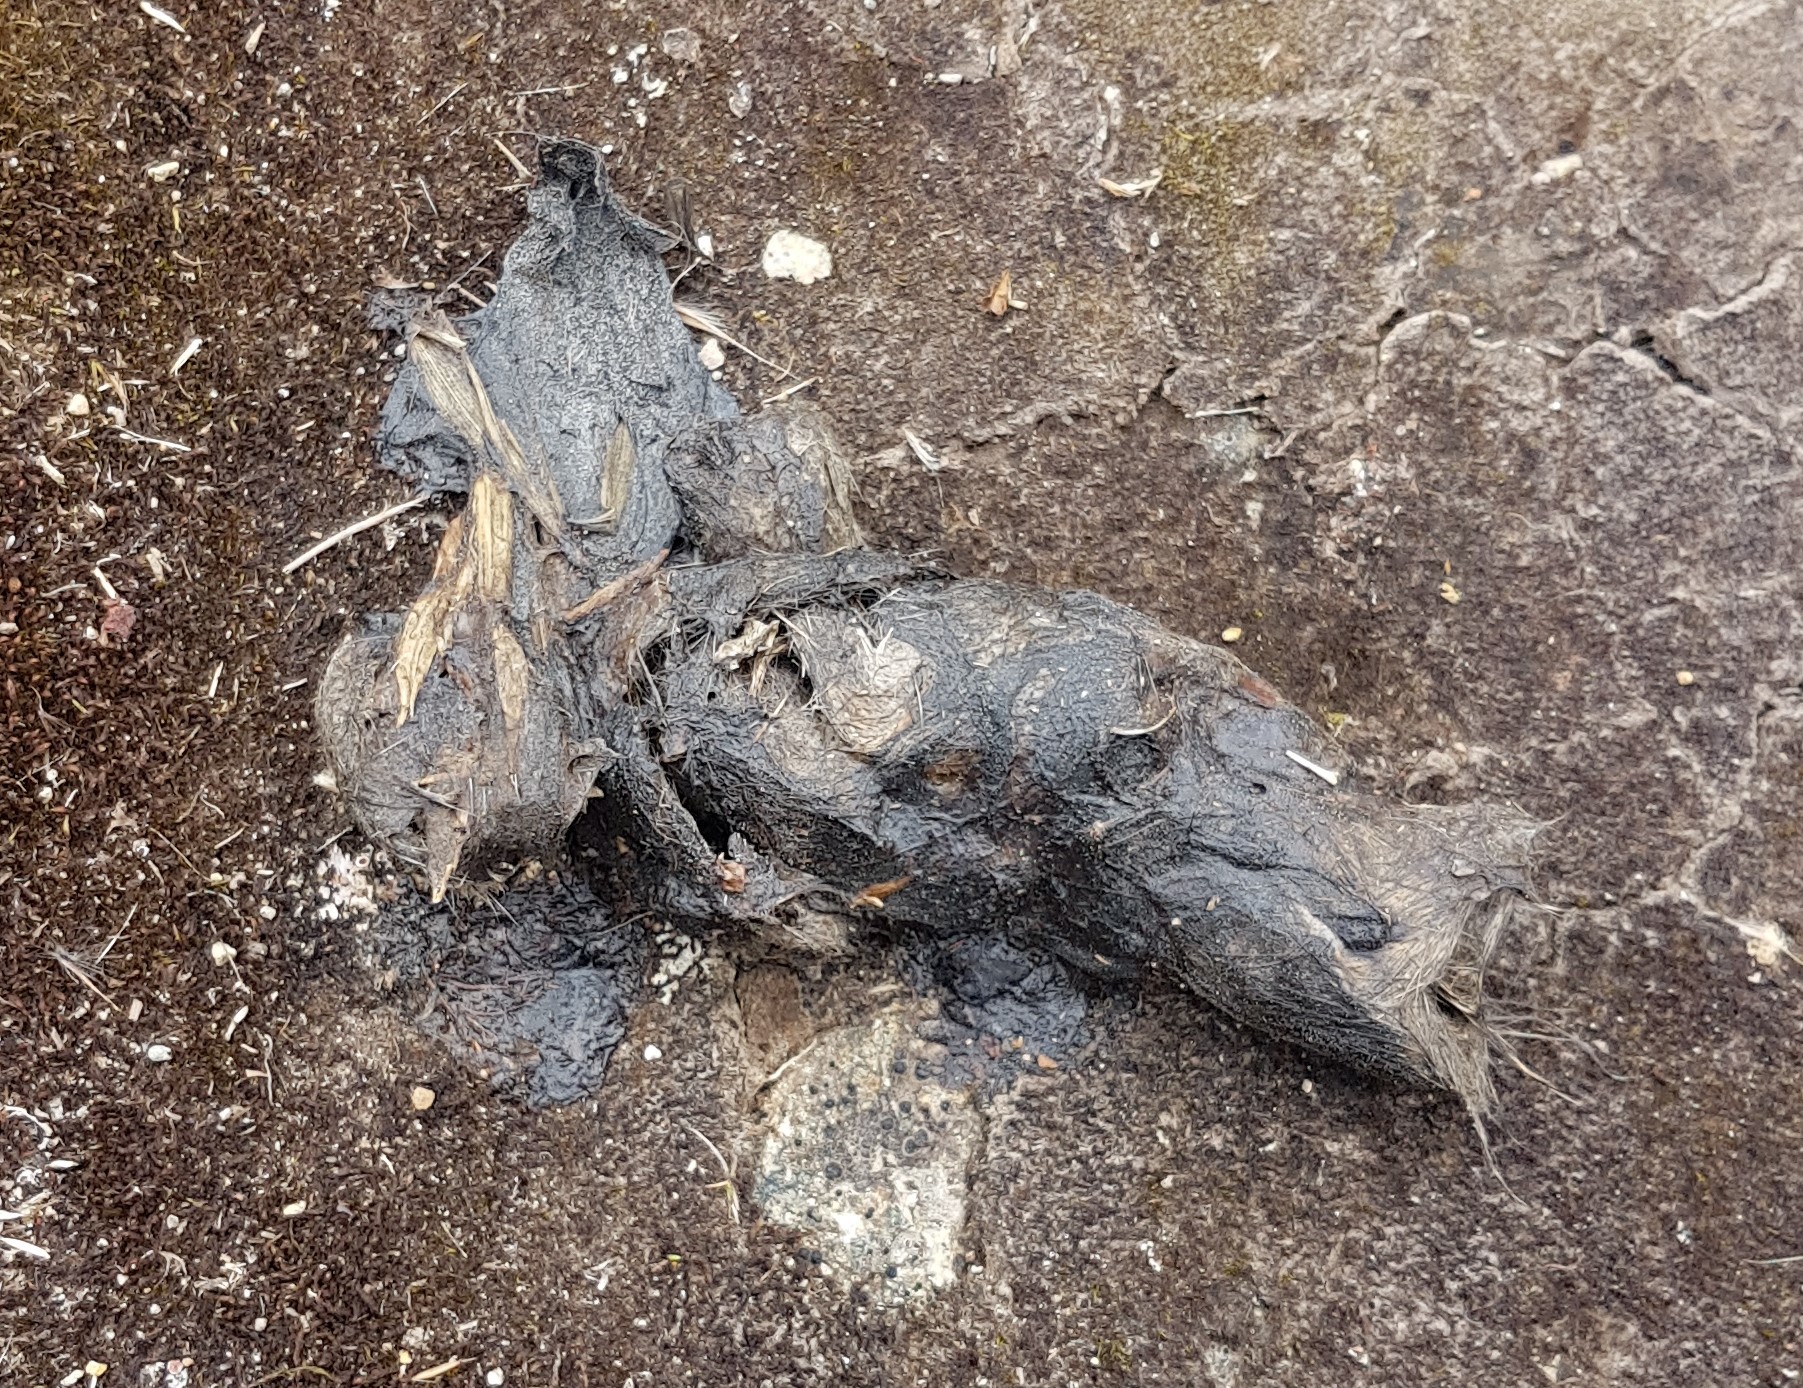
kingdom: Animalia
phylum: Chordata
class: Mammalia
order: Carnivora
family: Canidae
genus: Lycalopex
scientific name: Lycalopex culpaeus
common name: Culpeo
